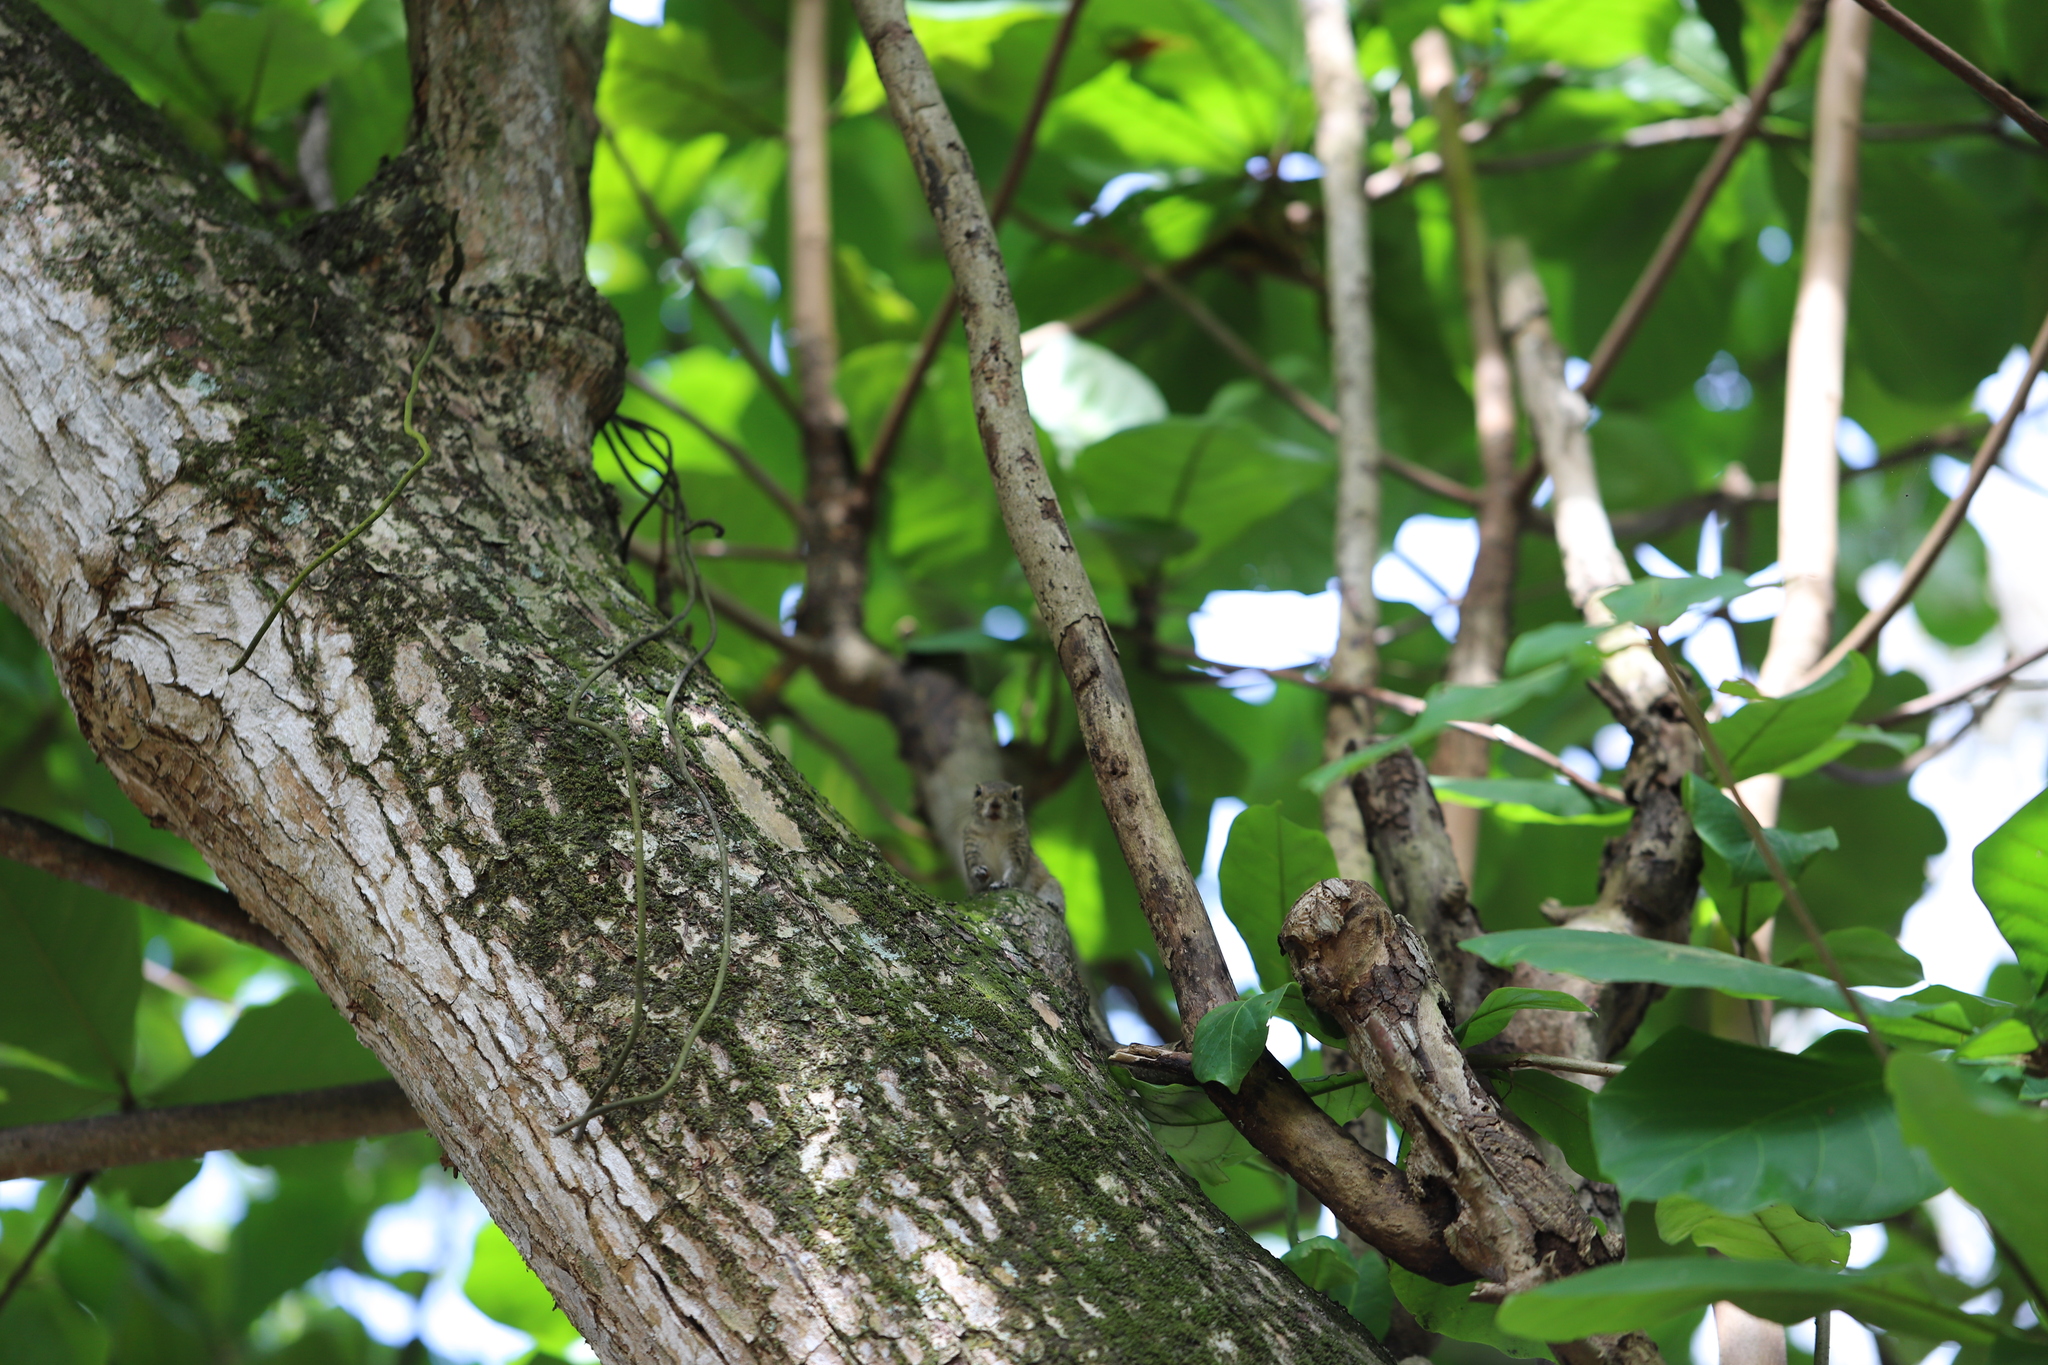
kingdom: Animalia
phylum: Chordata
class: Mammalia
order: Rodentia
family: Sciuridae
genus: Funambulus
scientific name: Funambulus palmarum
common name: Indian palm squirrel
